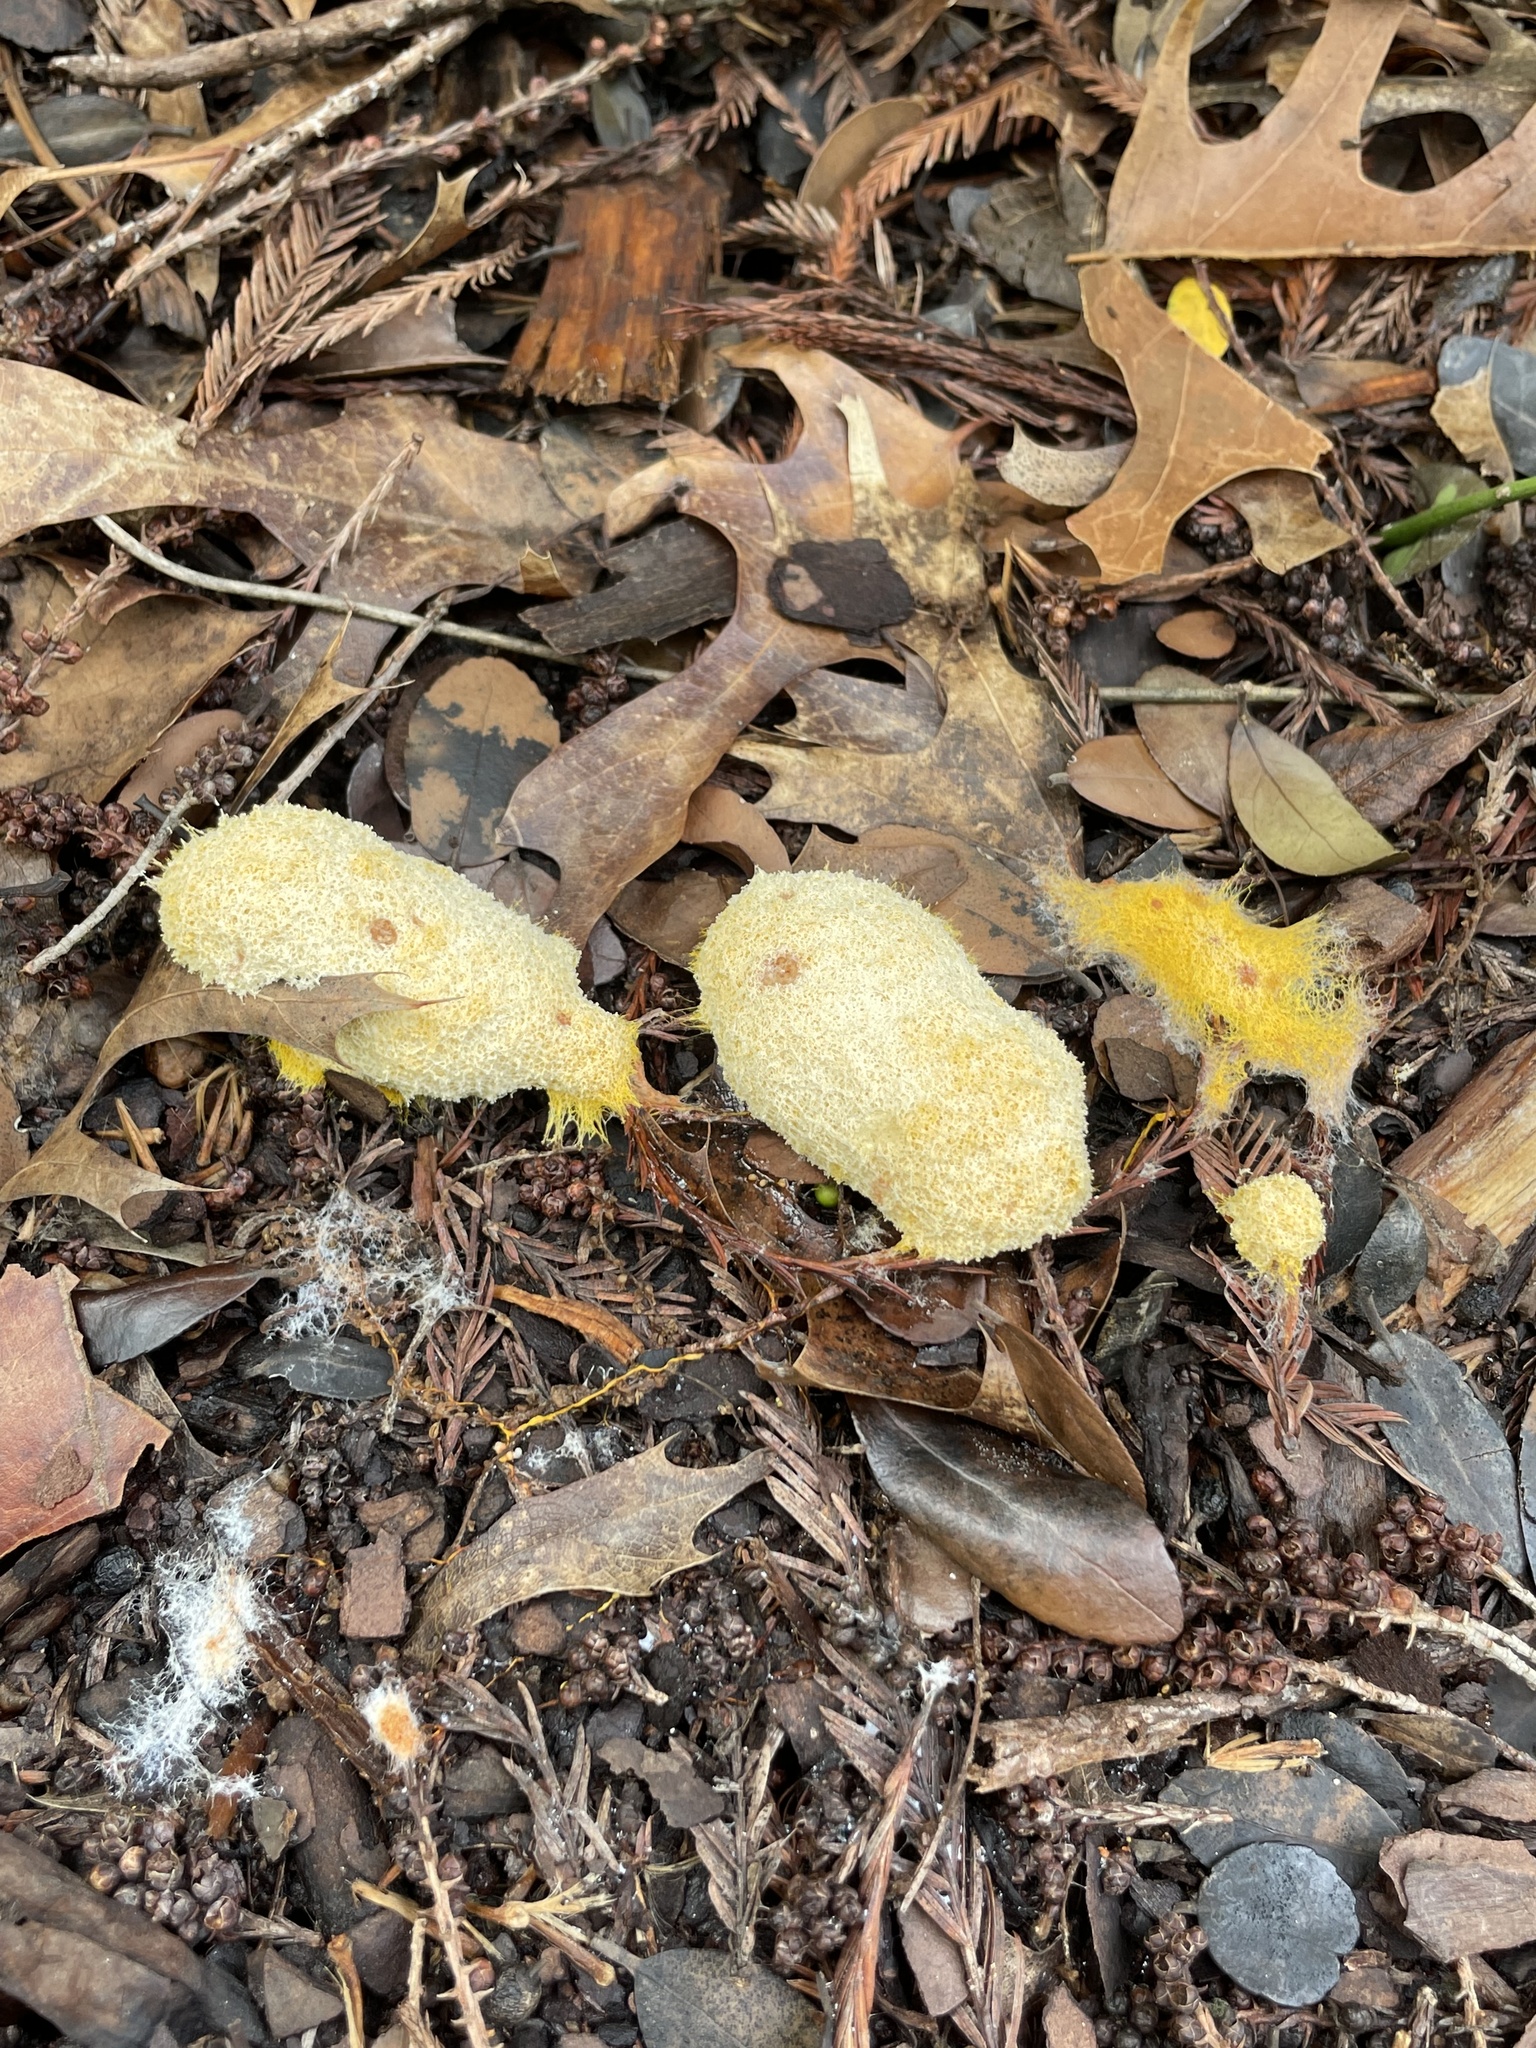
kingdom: Protozoa
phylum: Mycetozoa
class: Myxomycetes
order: Physarales
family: Physaraceae
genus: Fuligo
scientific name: Fuligo septica
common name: Dog vomit slime mold
